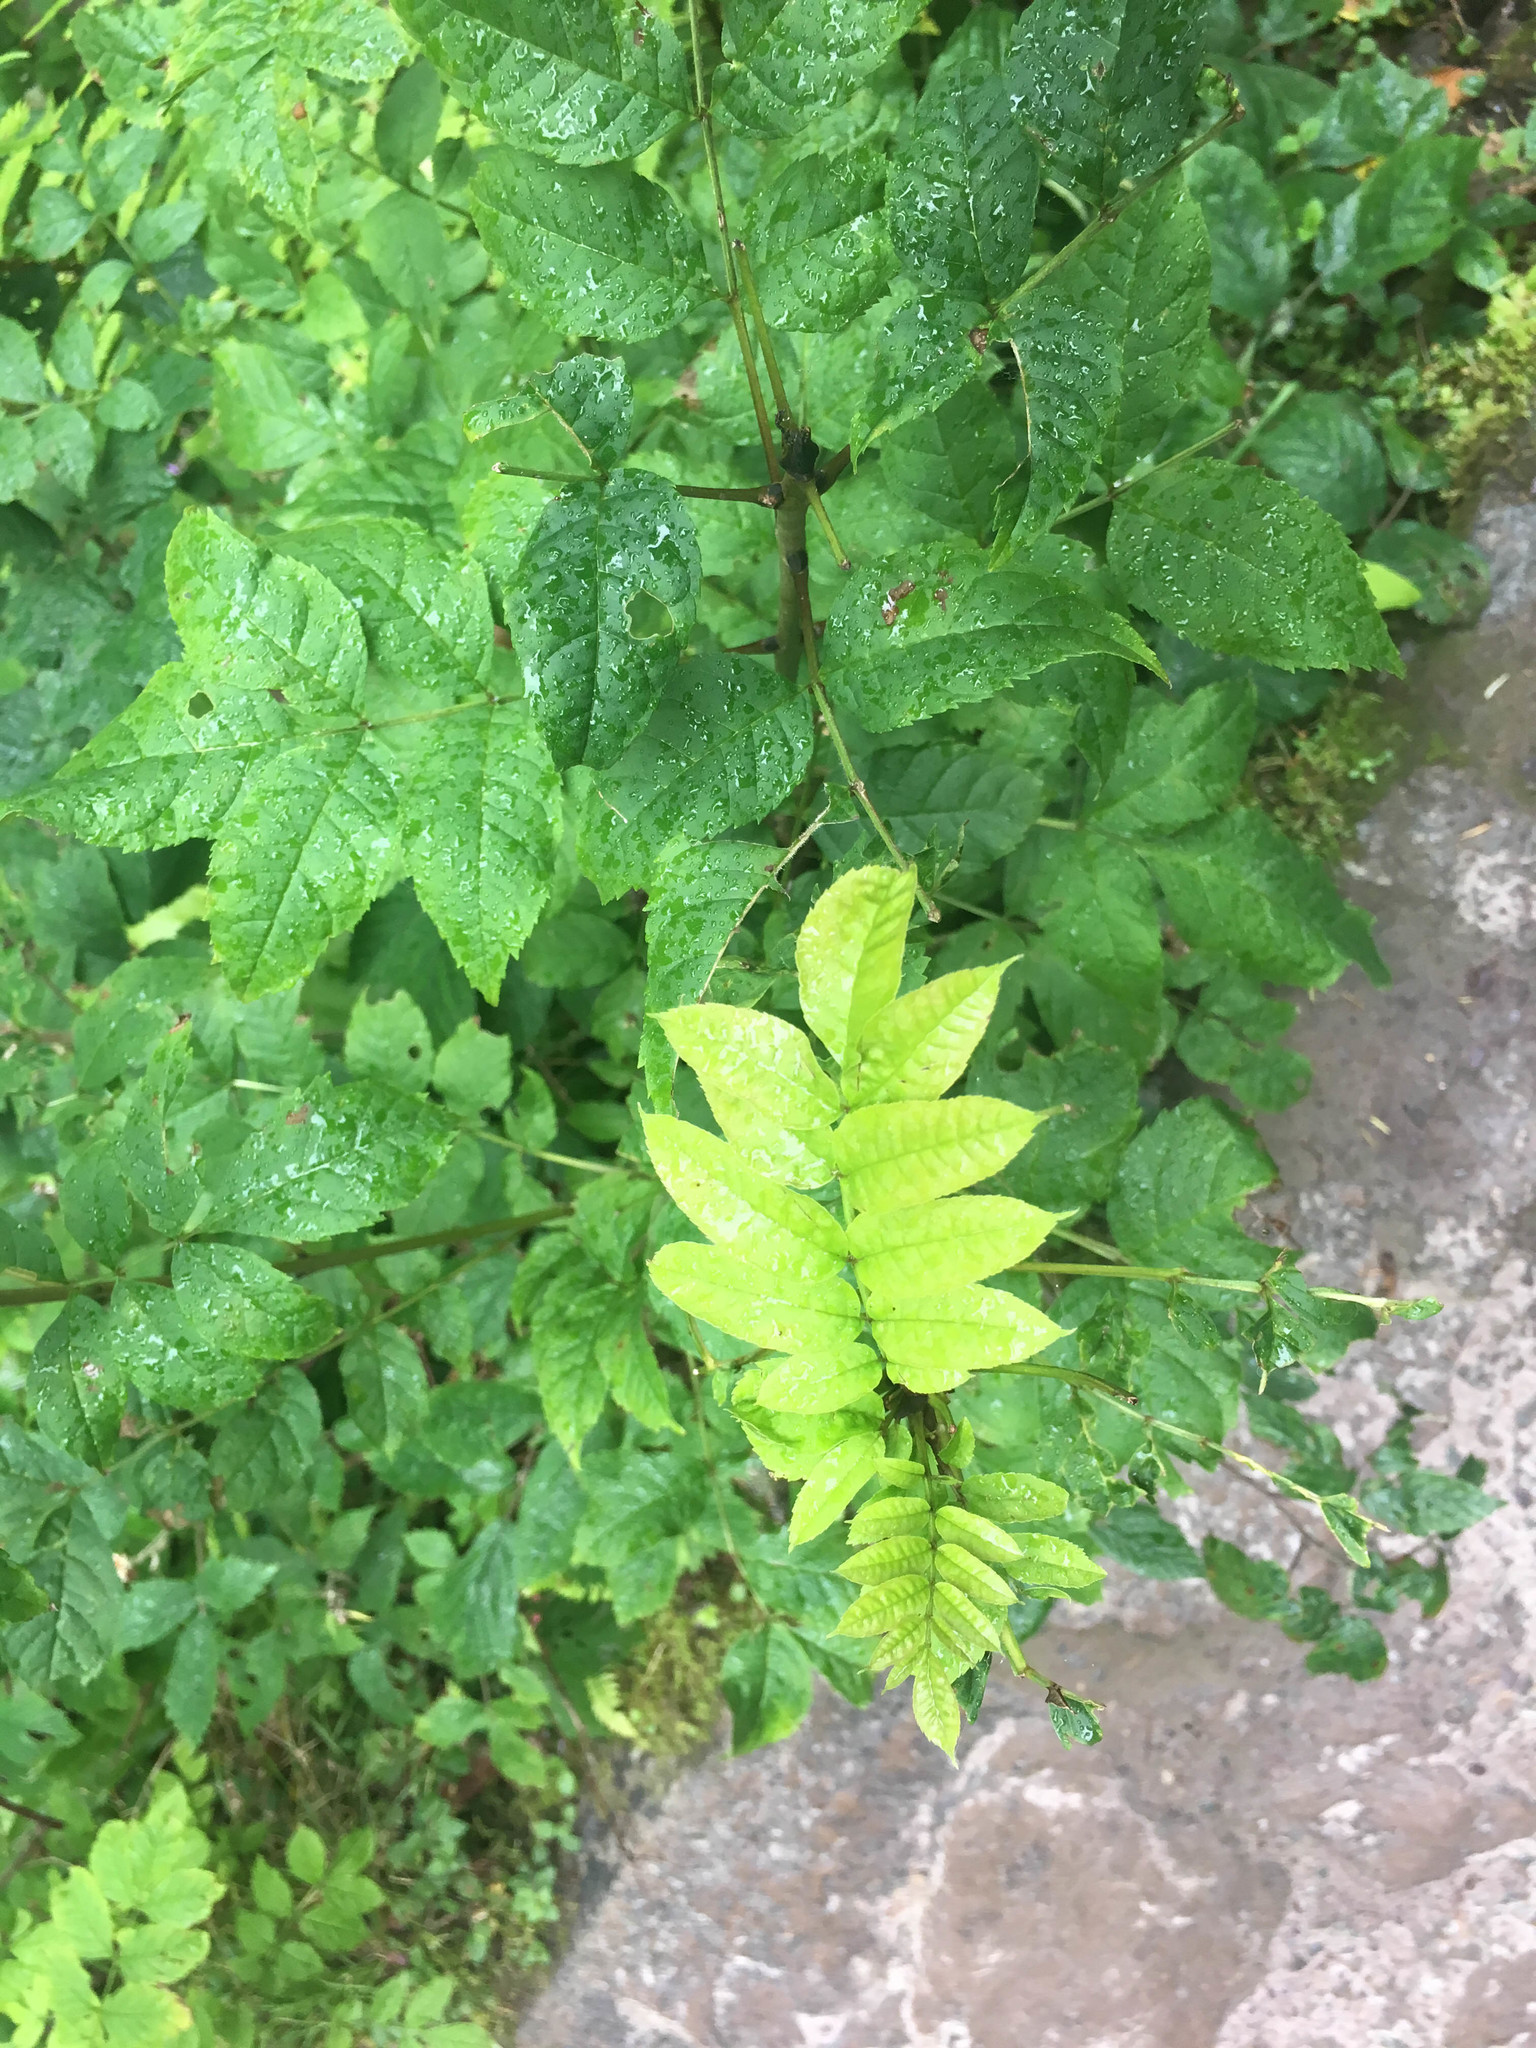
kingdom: Plantae
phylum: Tracheophyta
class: Magnoliopsida
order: Lamiales
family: Oleaceae
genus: Fraxinus
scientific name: Fraxinus excelsior
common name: European ash
